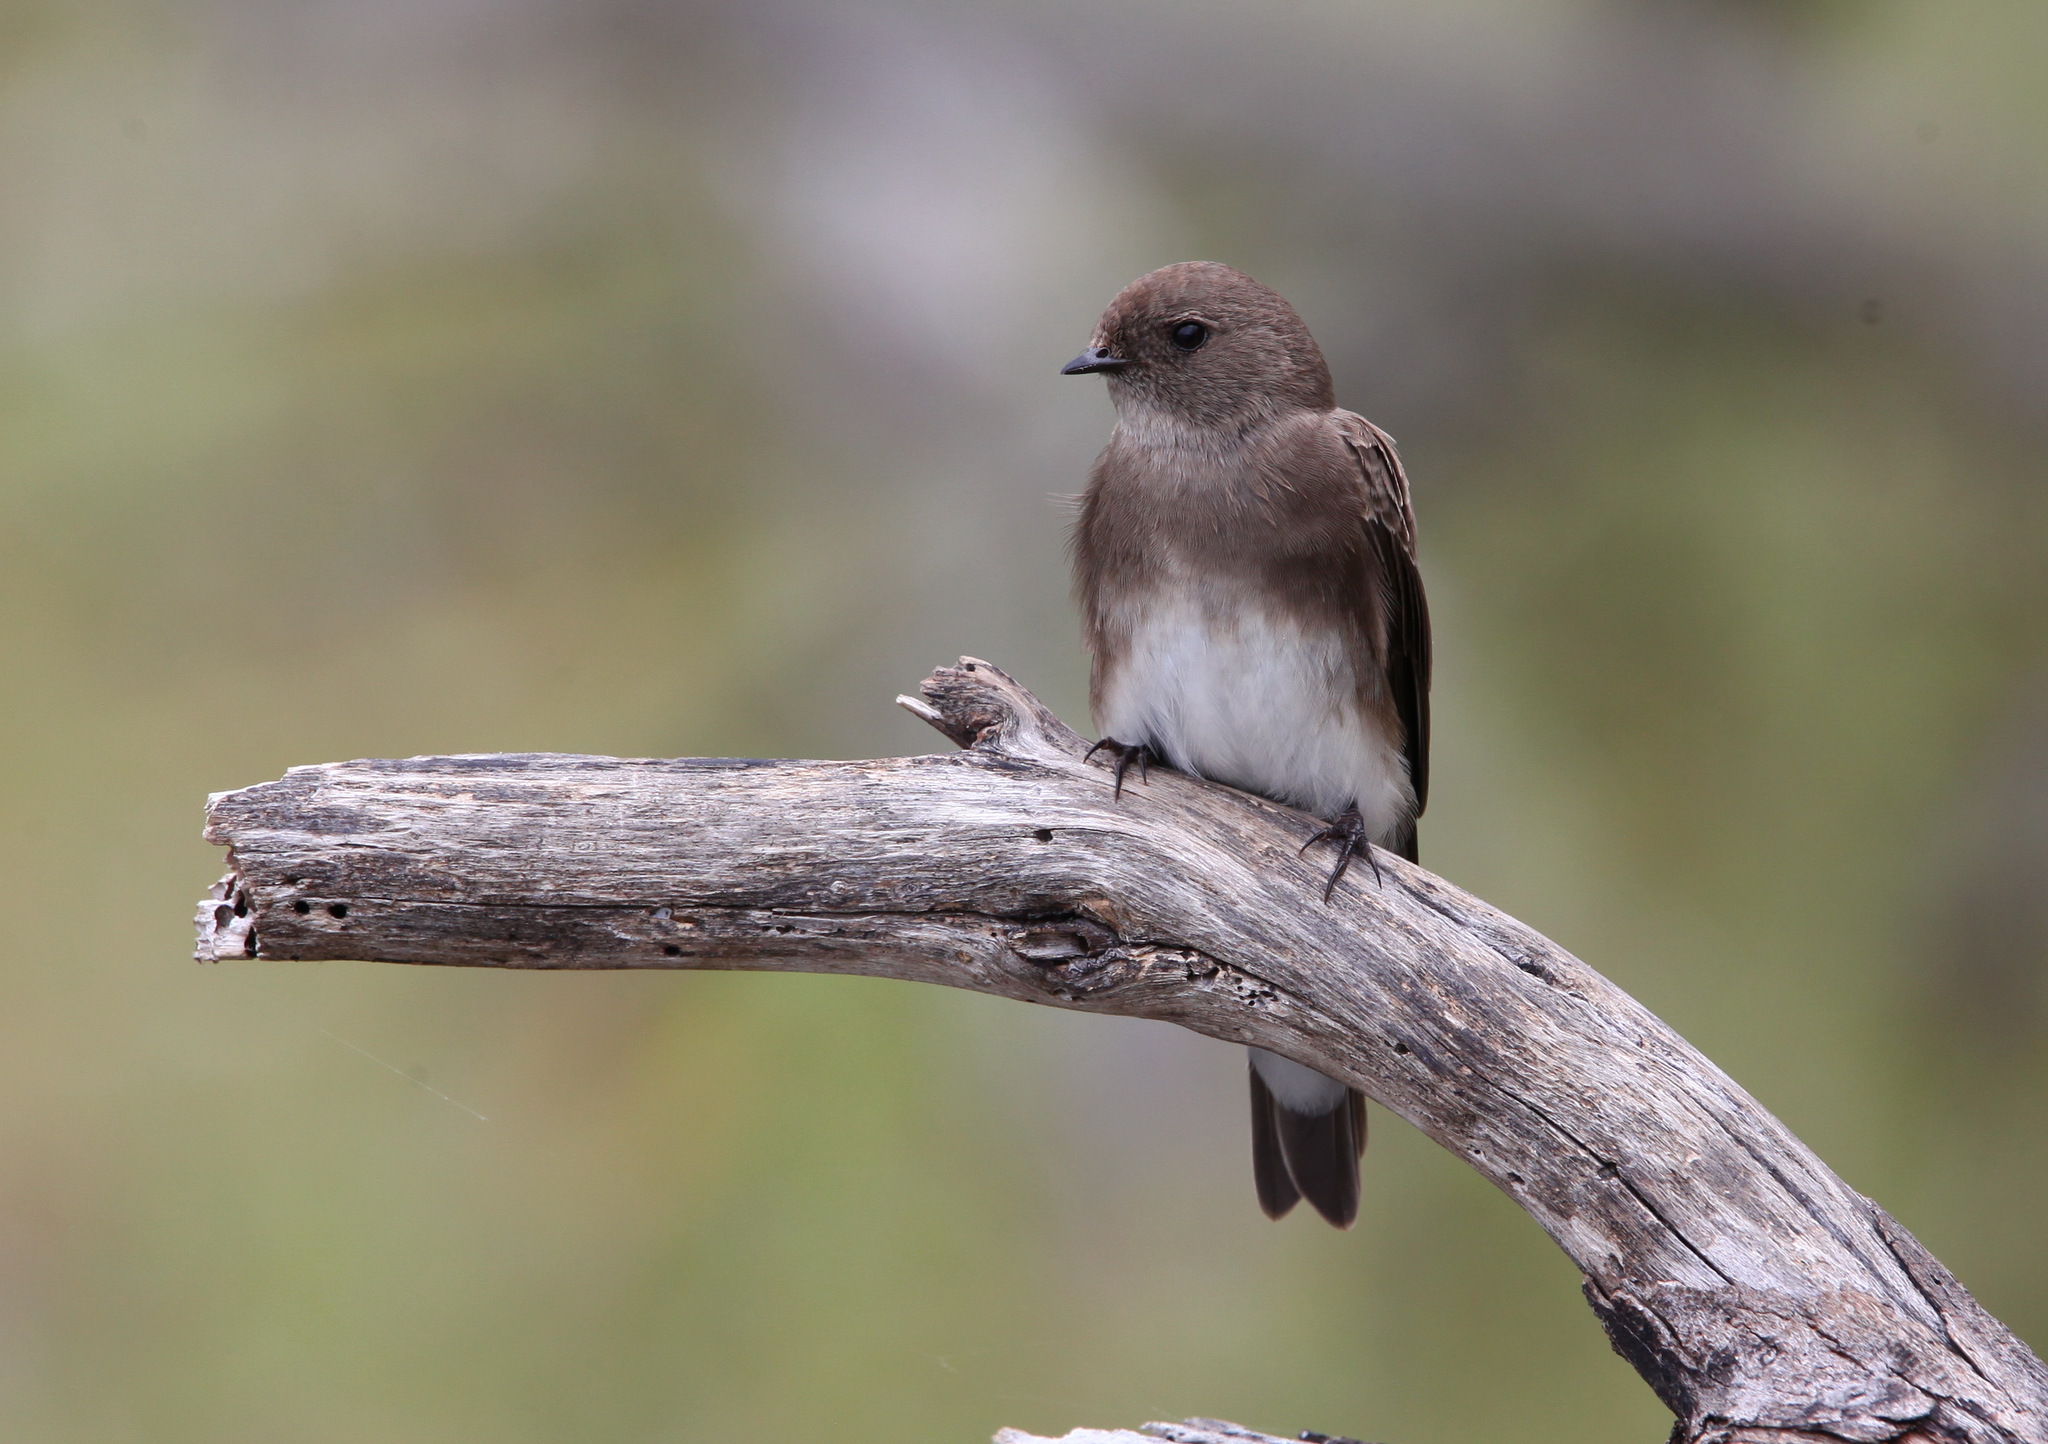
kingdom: Animalia
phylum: Chordata
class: Aves
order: Passeriformes
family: Hirundinidae
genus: Riparia
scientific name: Riparia paludicola
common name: Brown-throated martin
